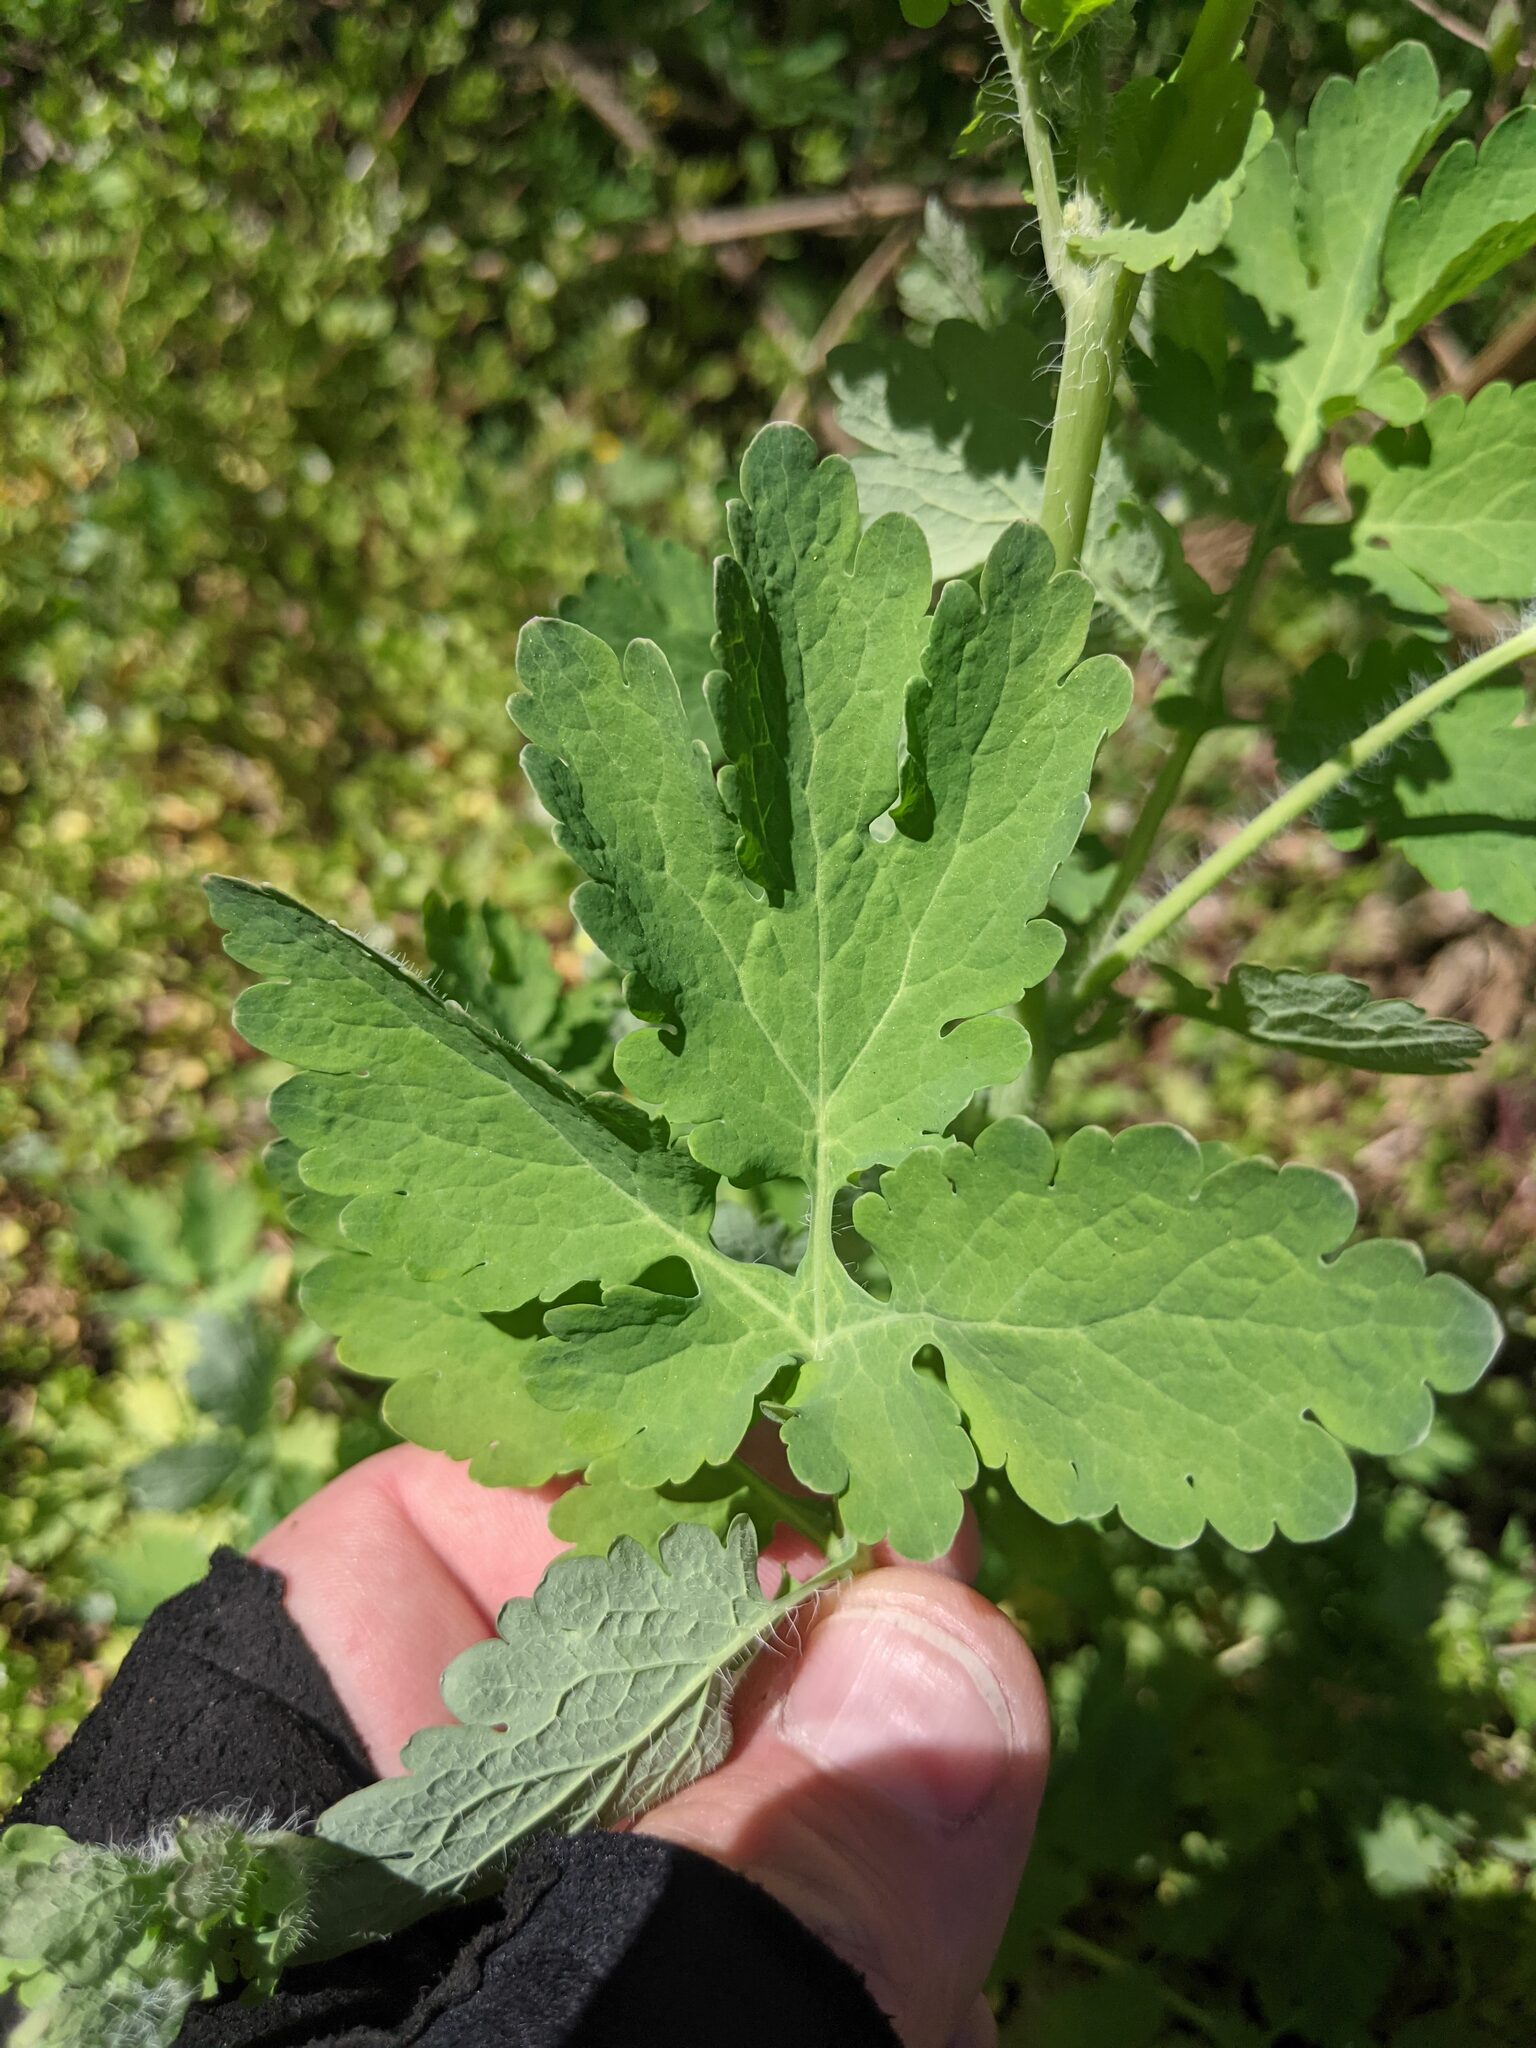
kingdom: Plantae
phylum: Tracheophyta
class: Magnoliopsida
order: Ranunculales
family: Papaveraceae
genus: Chelidonium
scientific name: Chelidonium majus
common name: Greater celandine
